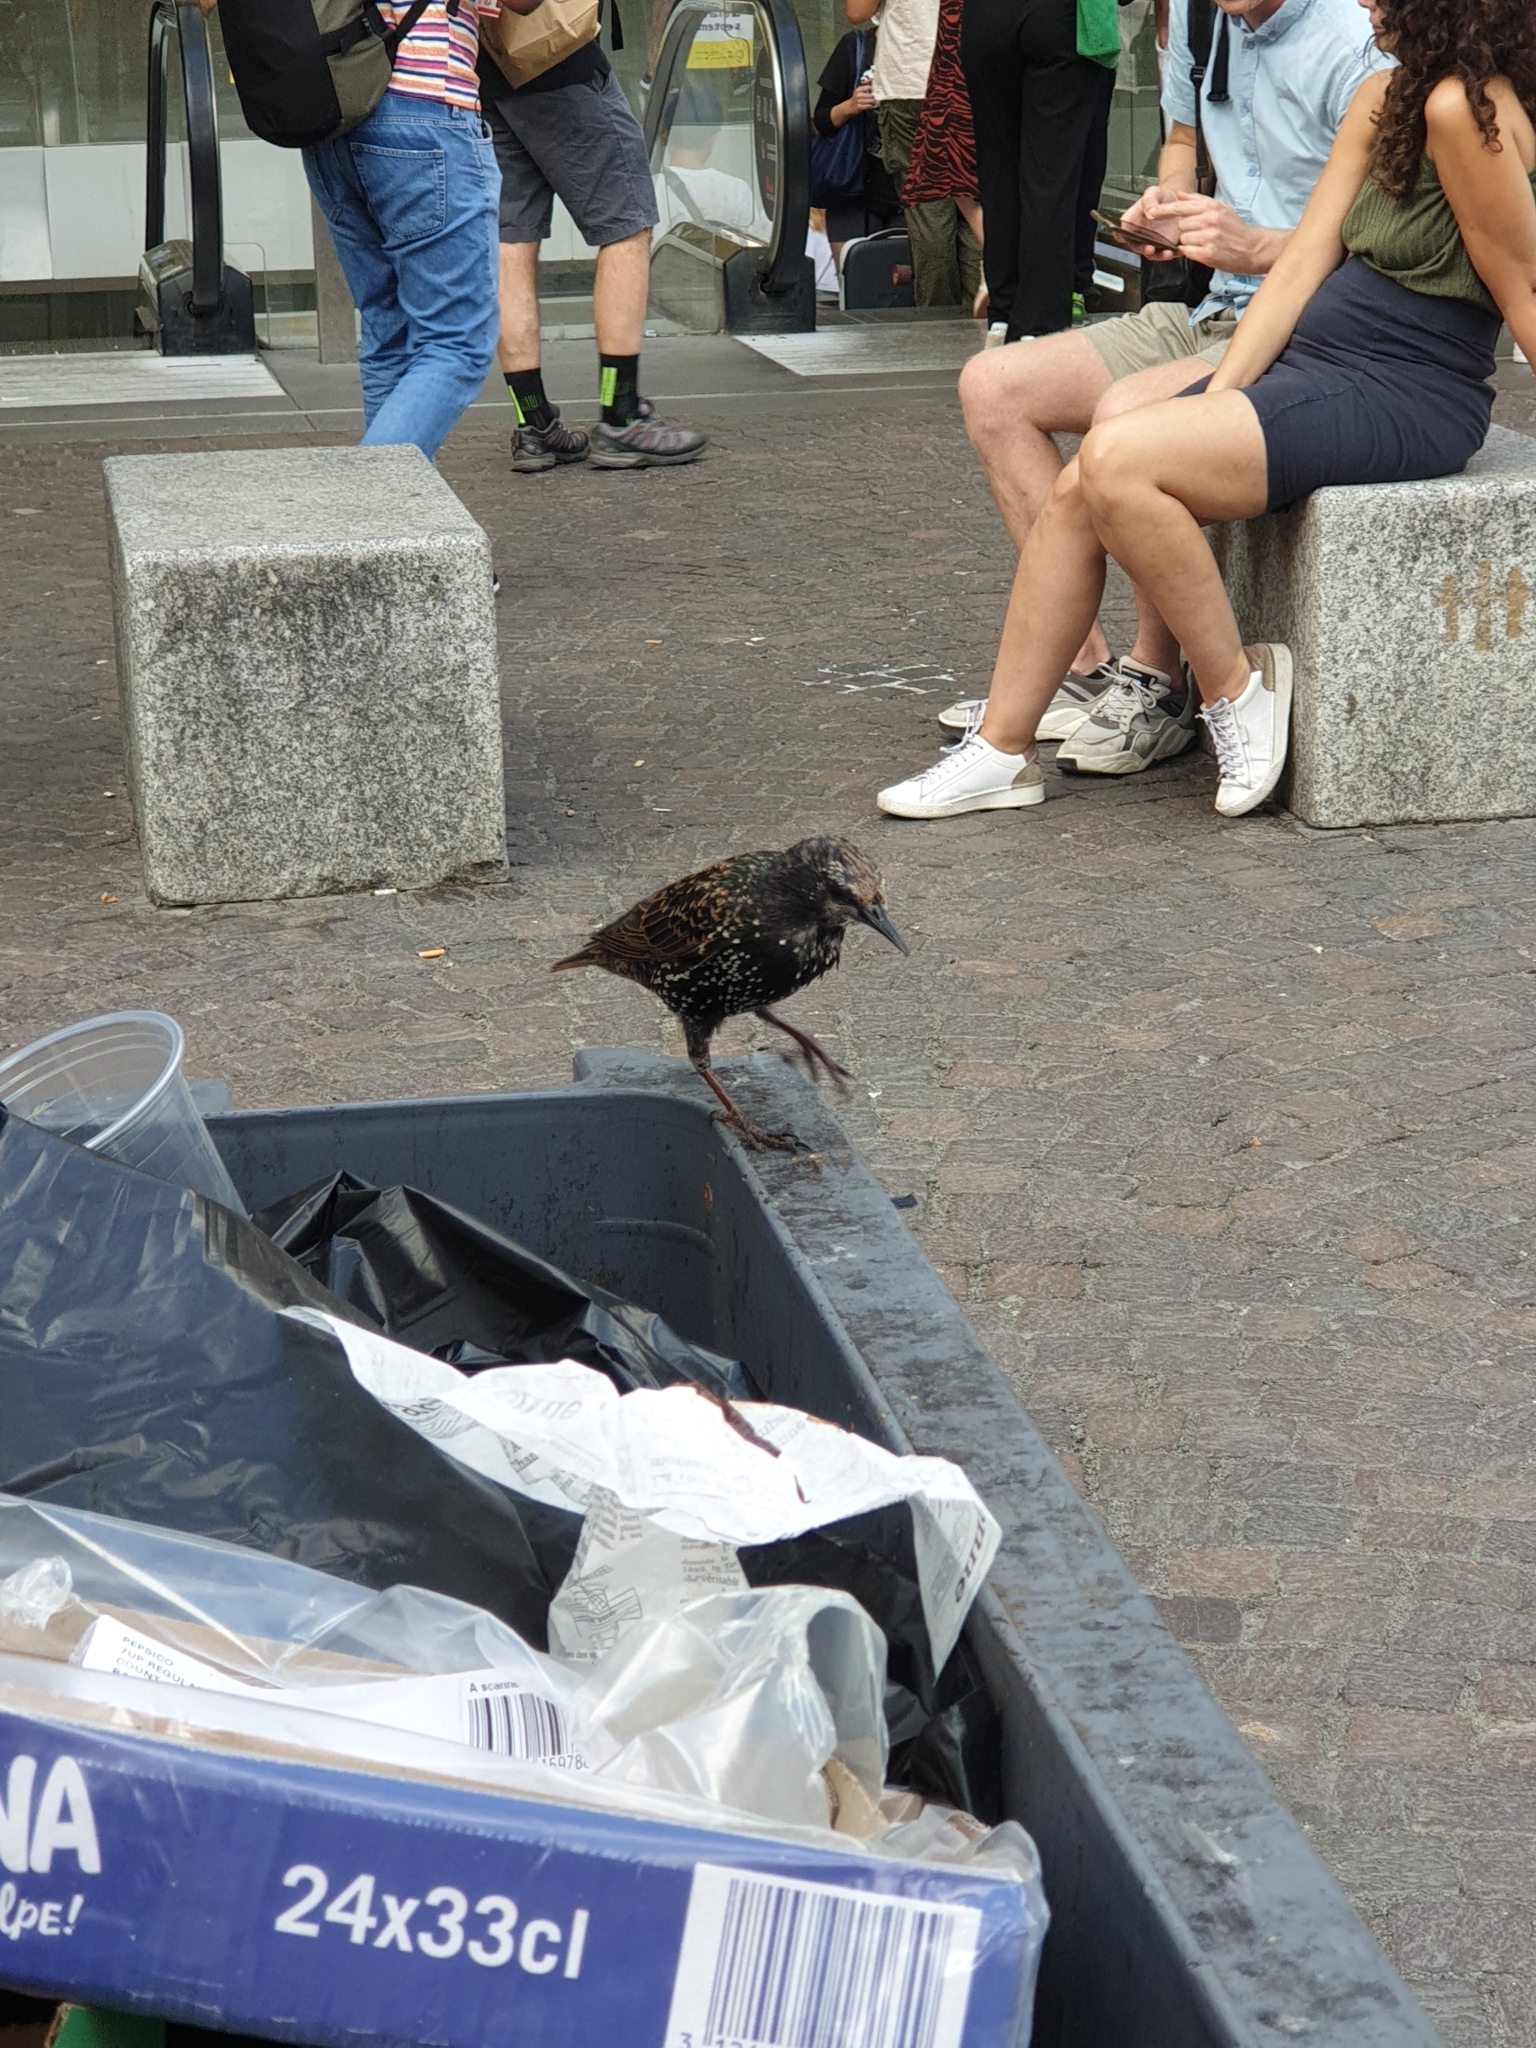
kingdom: Animalia
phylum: Chordata
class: Aves
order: Passeriformes
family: Sturnidae
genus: Sturnus
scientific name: Sturnus vulgaris
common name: Common starling
